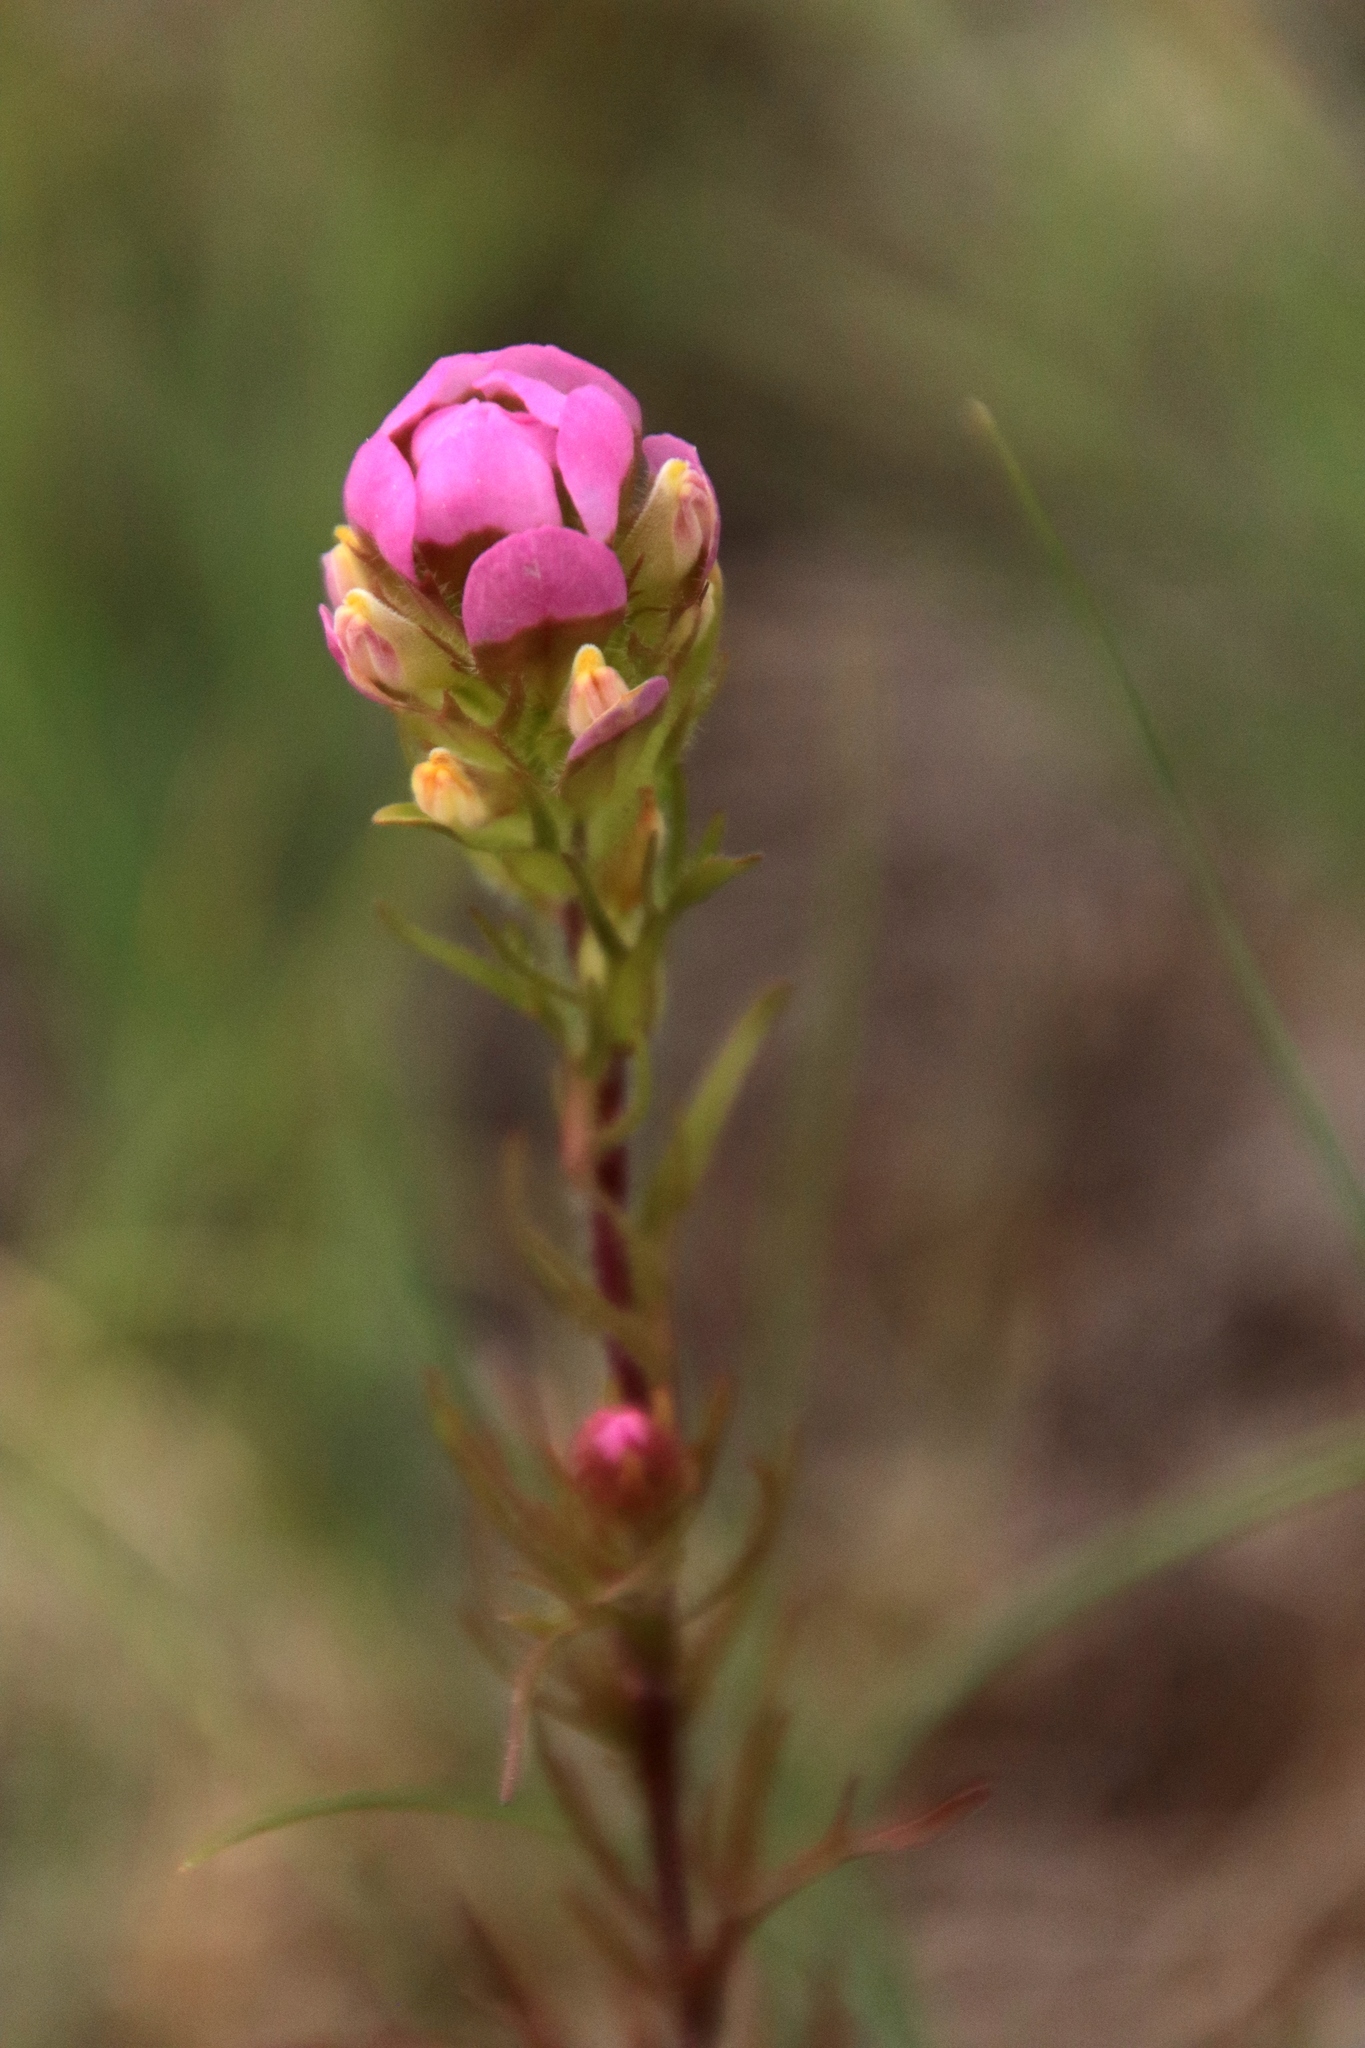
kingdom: Plantae
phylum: Tracheophyta
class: Magnoliopsida
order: Lamiales
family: Orobanchaceae
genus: Orthocarpus
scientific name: Orthocarpus tenuifolius
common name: Thin-leaved owl's-clover
